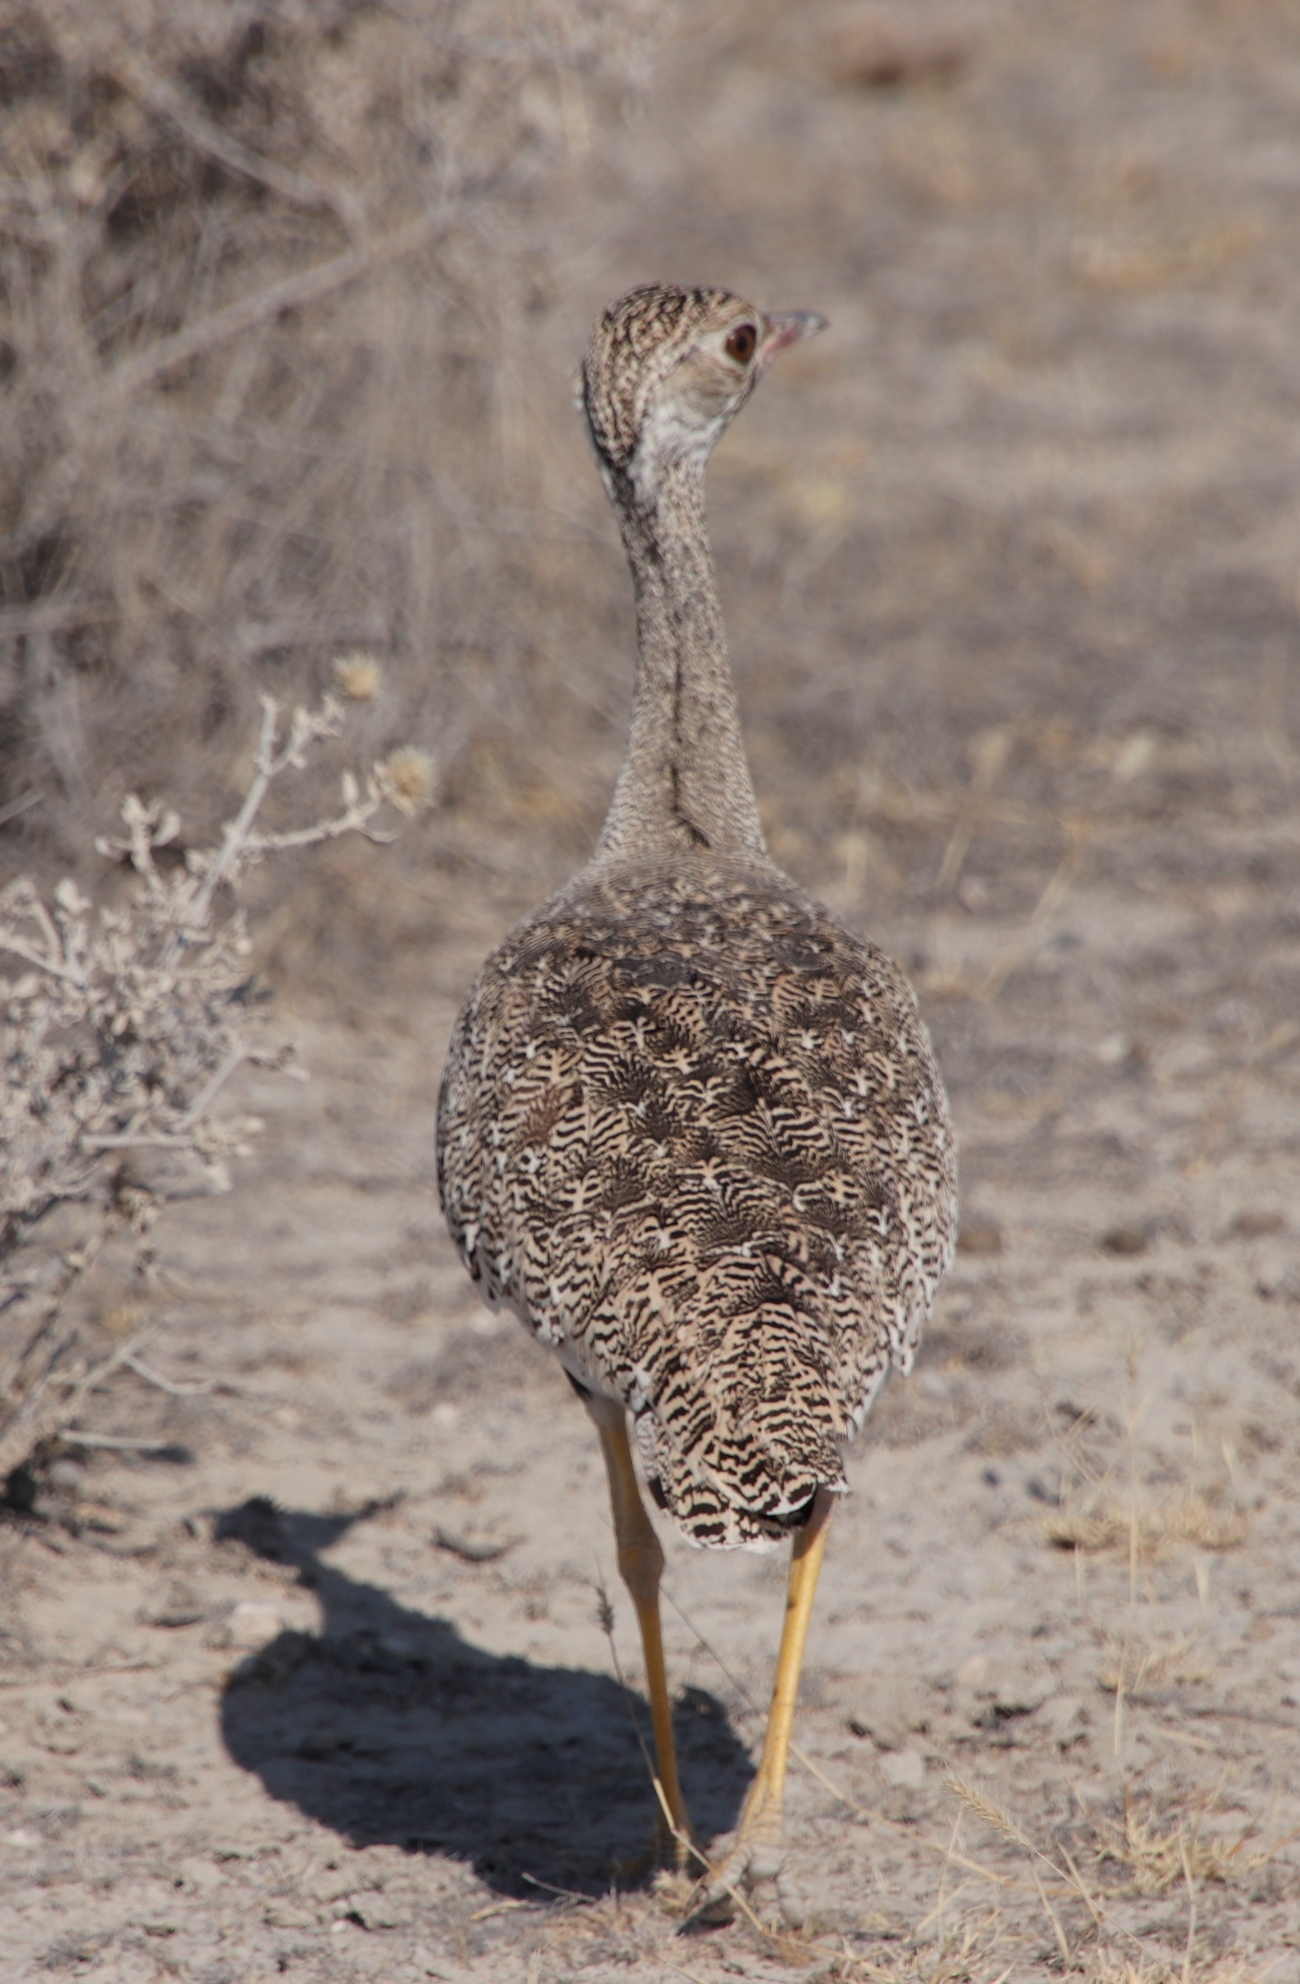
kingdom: Animalia
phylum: Chordata
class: Aves
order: Otidiformes
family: Otididae
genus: Afrotis
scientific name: Afrotis afraoides
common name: Northern black korhaan
